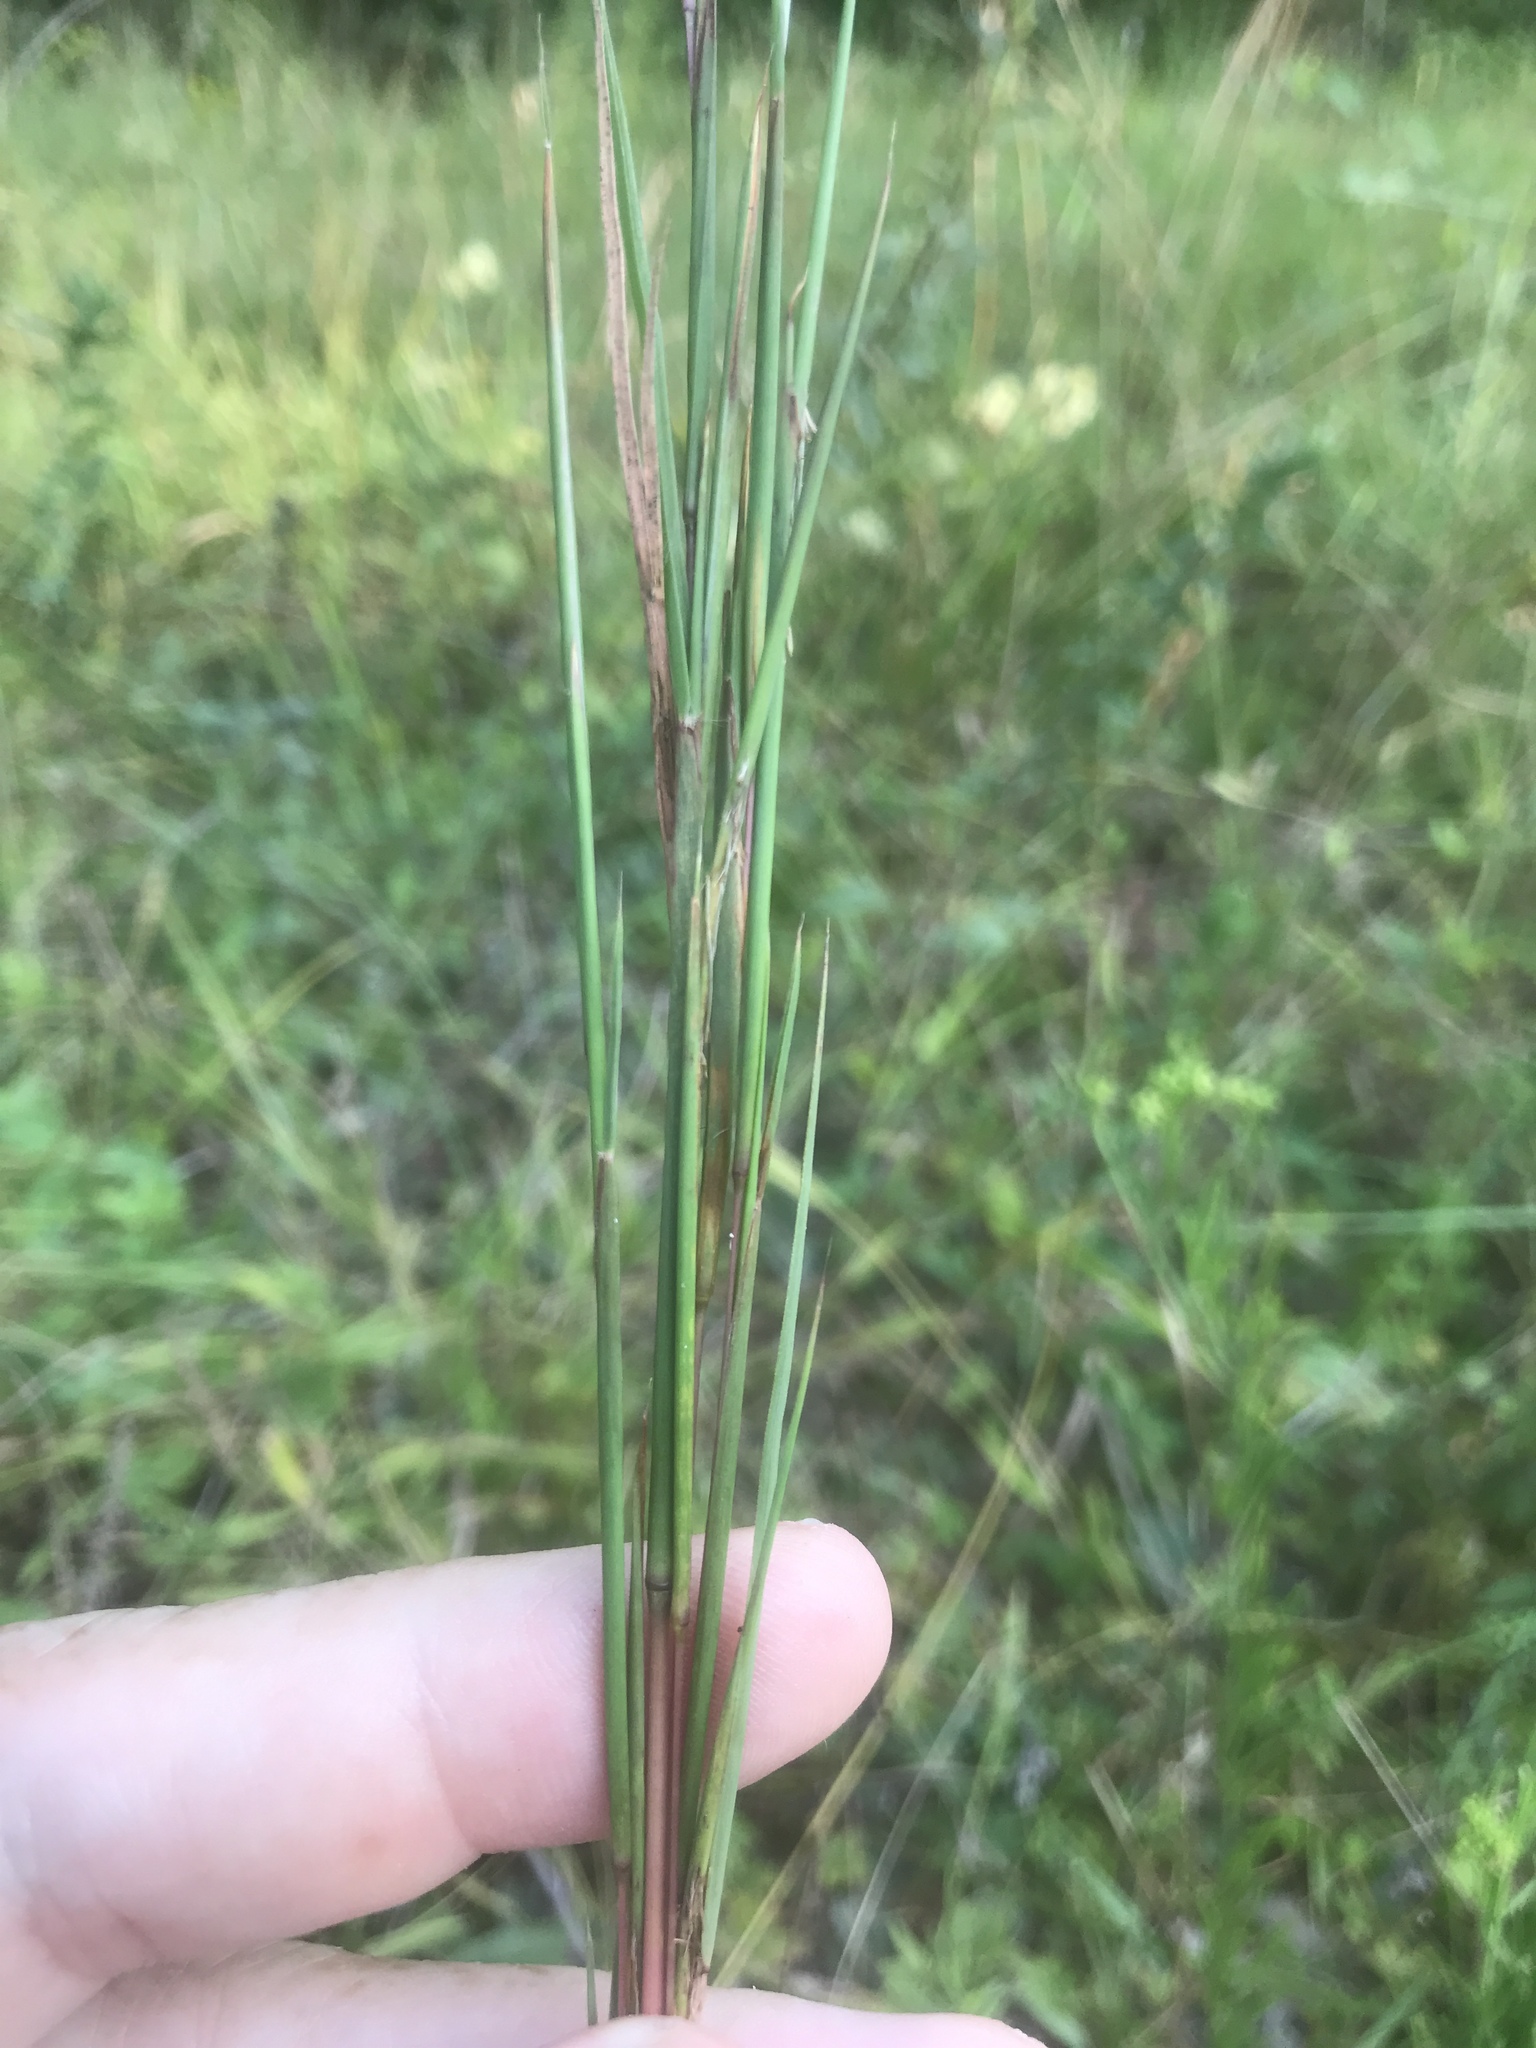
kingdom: Plantae
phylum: Tracheophyta
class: Liliopsida
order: Poales
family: Poaceae
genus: Schizachyrium
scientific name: Schizachyrium scoparium
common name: Little bluestem
